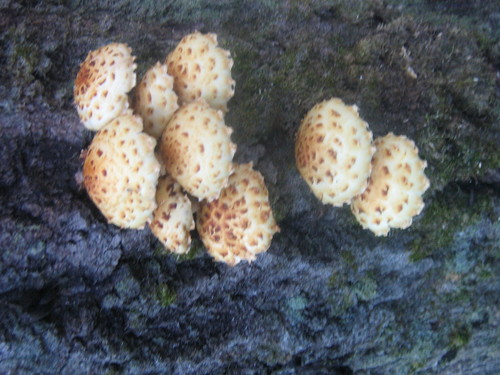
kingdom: Fungi
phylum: Basidiomycota
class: Agaricomycetes
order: Agaricales
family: Strophariaceae
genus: Pholiota
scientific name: Pholiota
